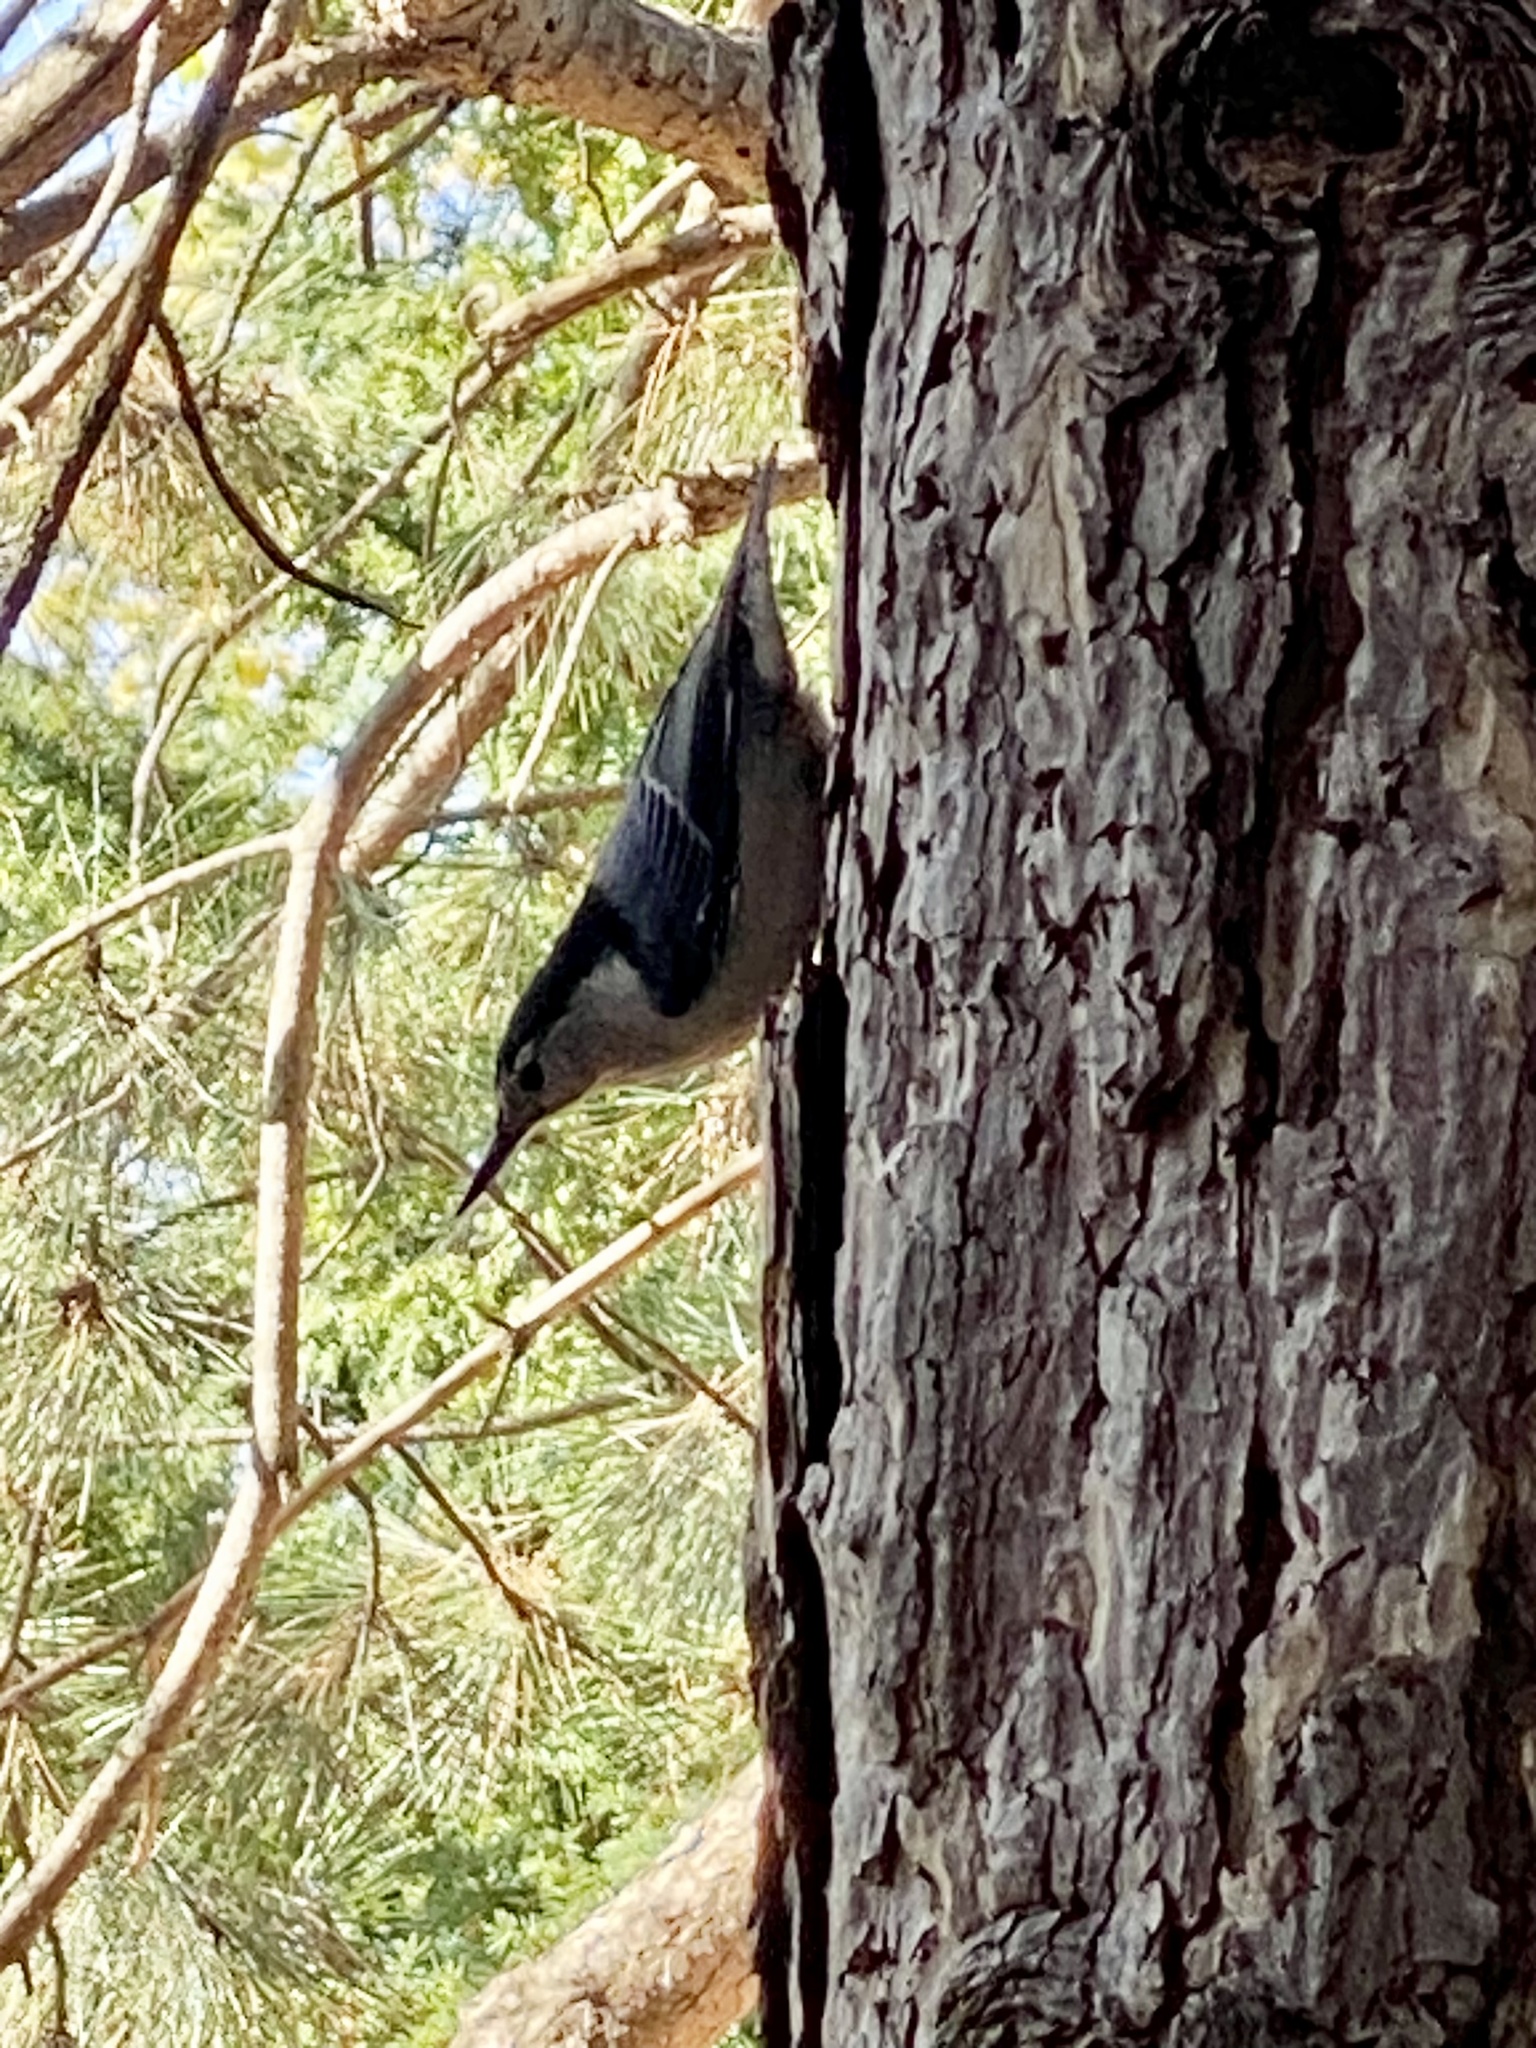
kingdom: Animalia
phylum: Chordata
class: Aves
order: Passeriformes
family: Sittidae
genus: Sitta
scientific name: Sitta carolinensis
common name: White-breasted nuthatch
